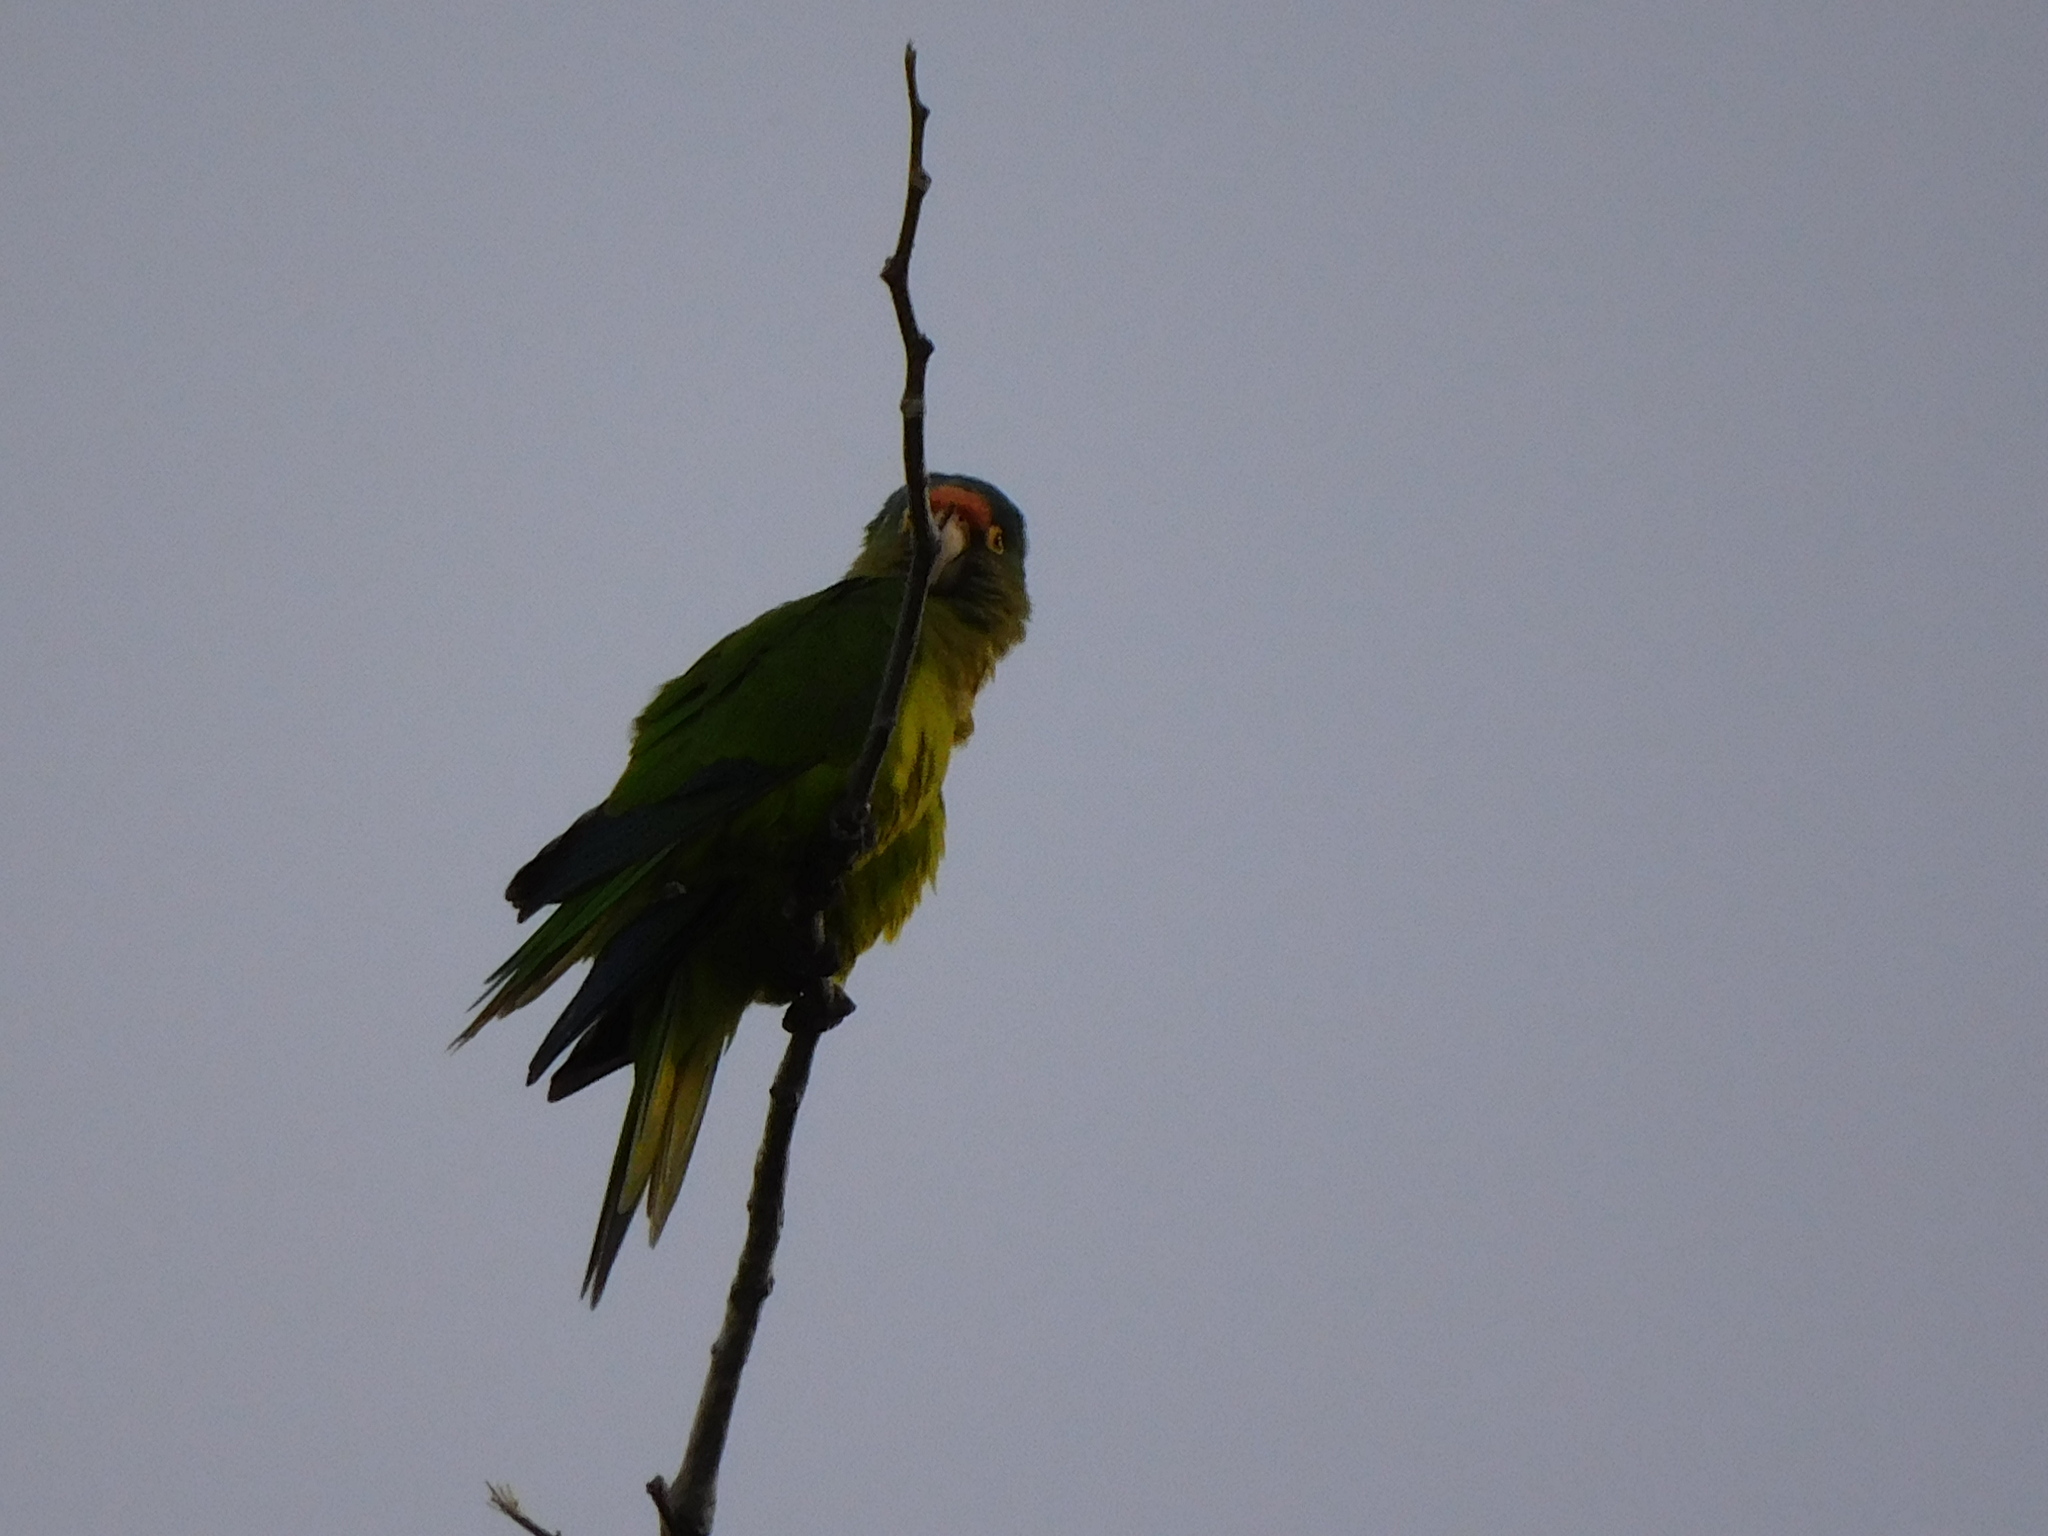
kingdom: Animalia
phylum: Chordata
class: Aves
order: Psittaciformes
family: Psittacidae
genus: Aratinga
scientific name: Aratinga canicularis
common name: Orange-fronted parakeet
